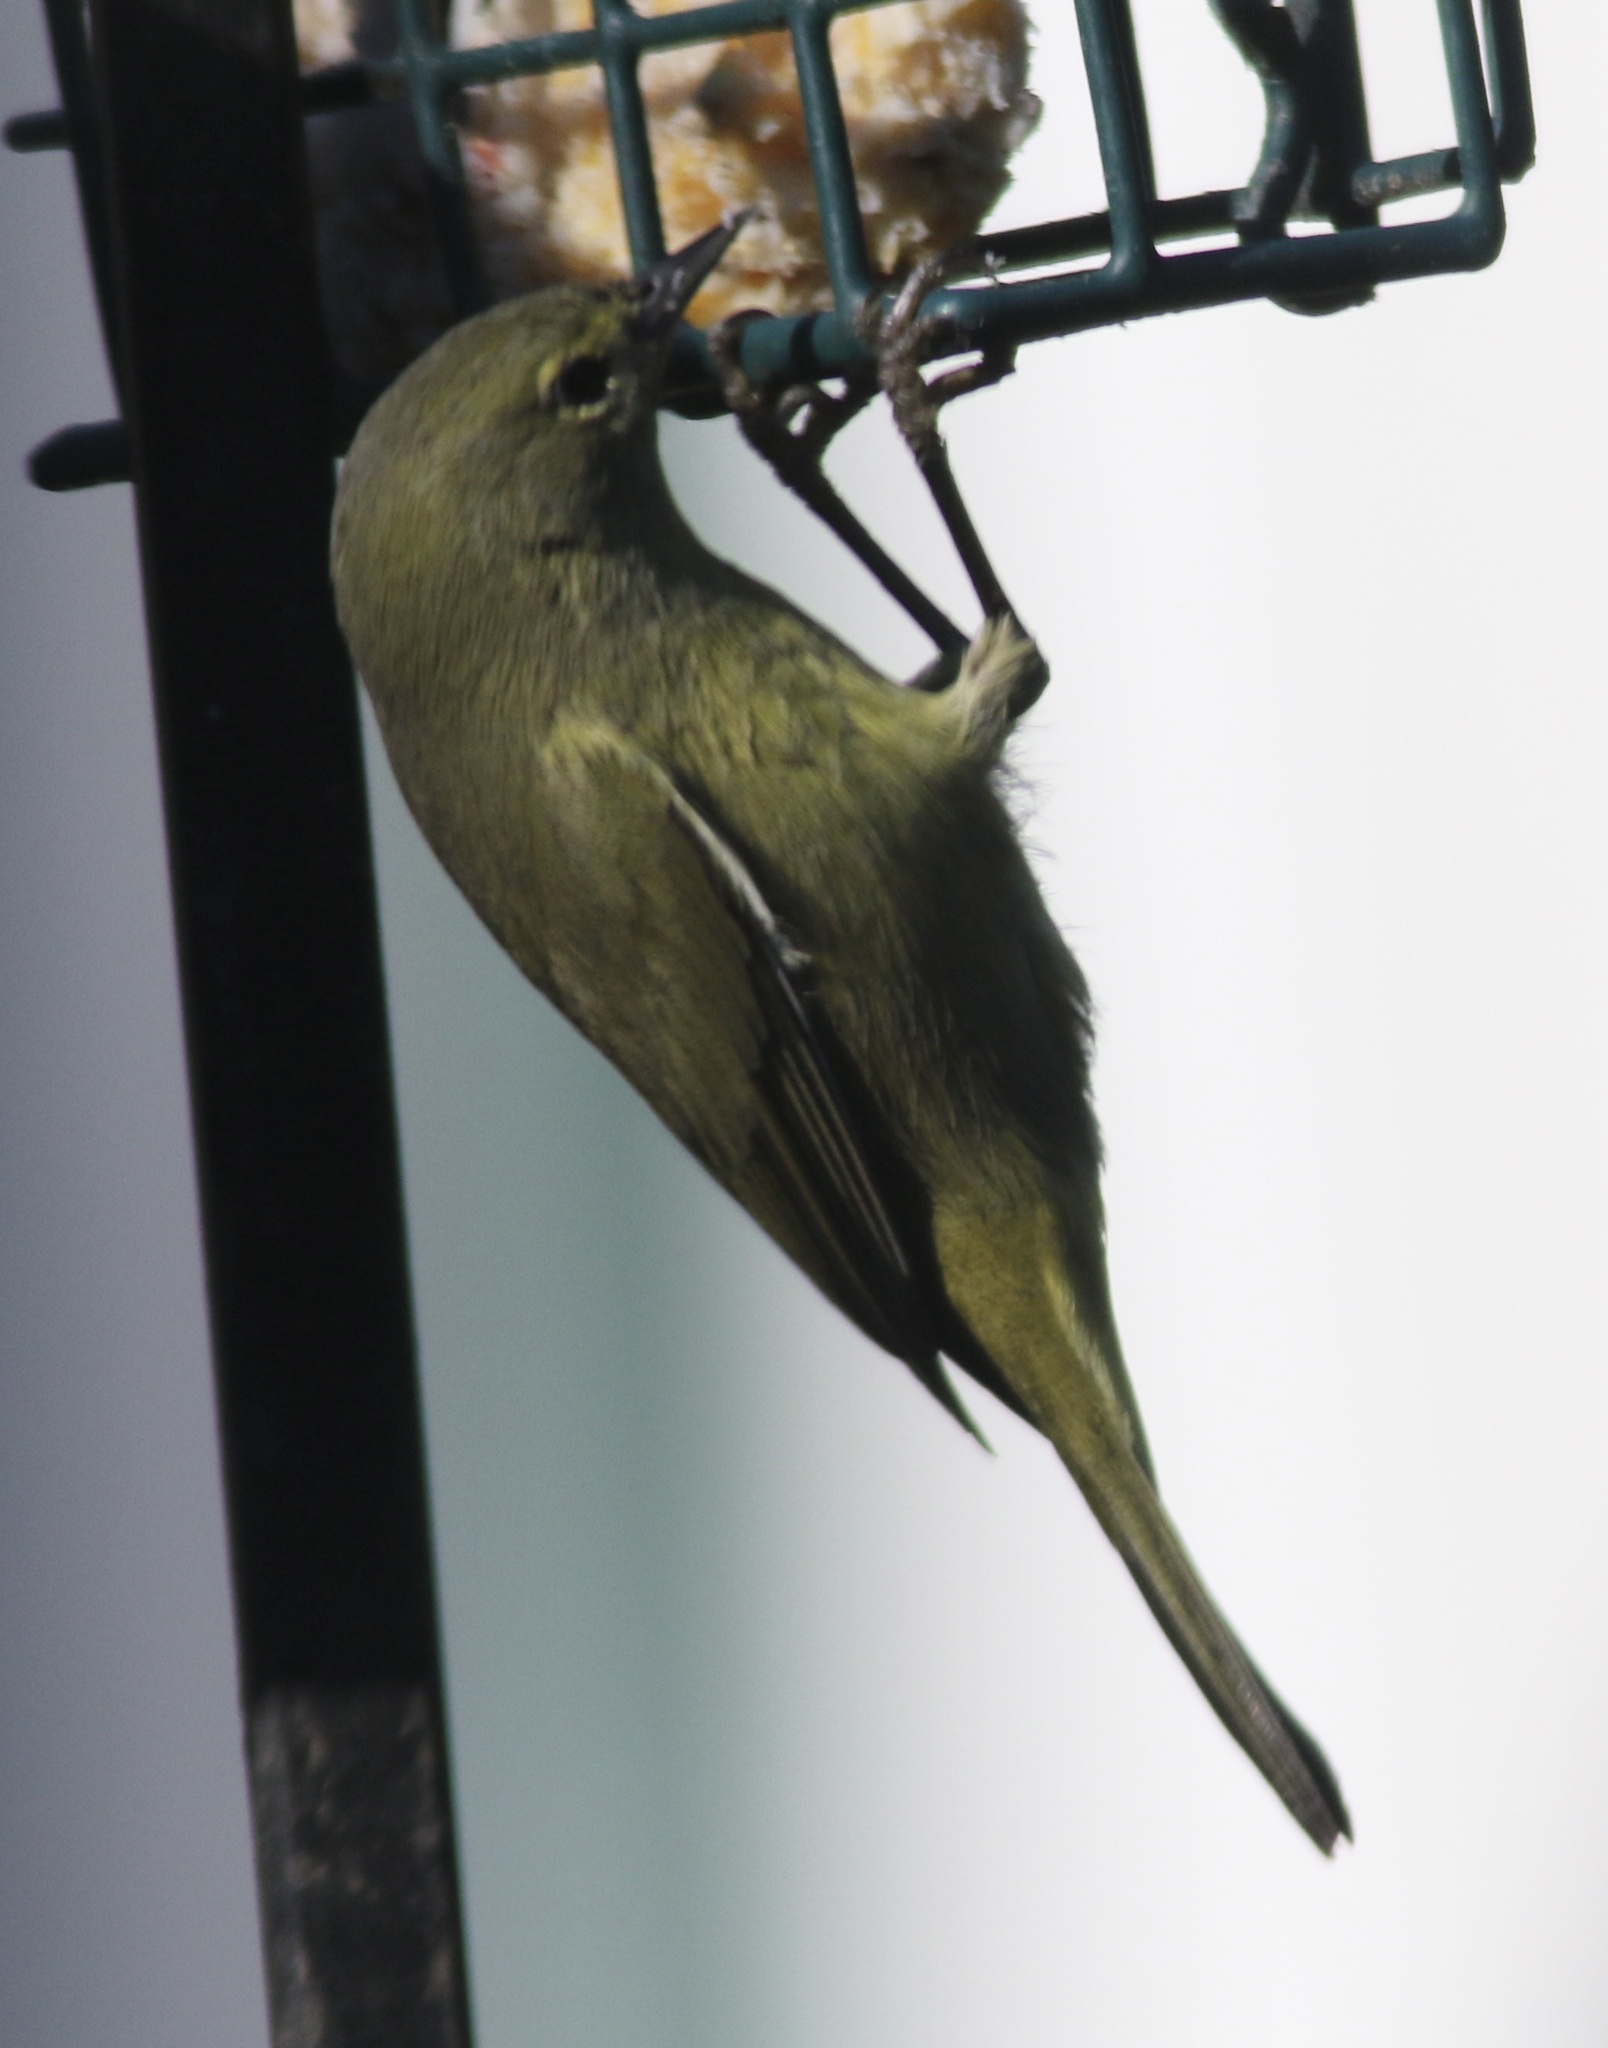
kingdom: Animalia
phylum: Chordata
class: Aves
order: Passeriformes
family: Parulidae
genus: Leiothlypis
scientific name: Leiothlypis celata
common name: Orange-crowned warbler
